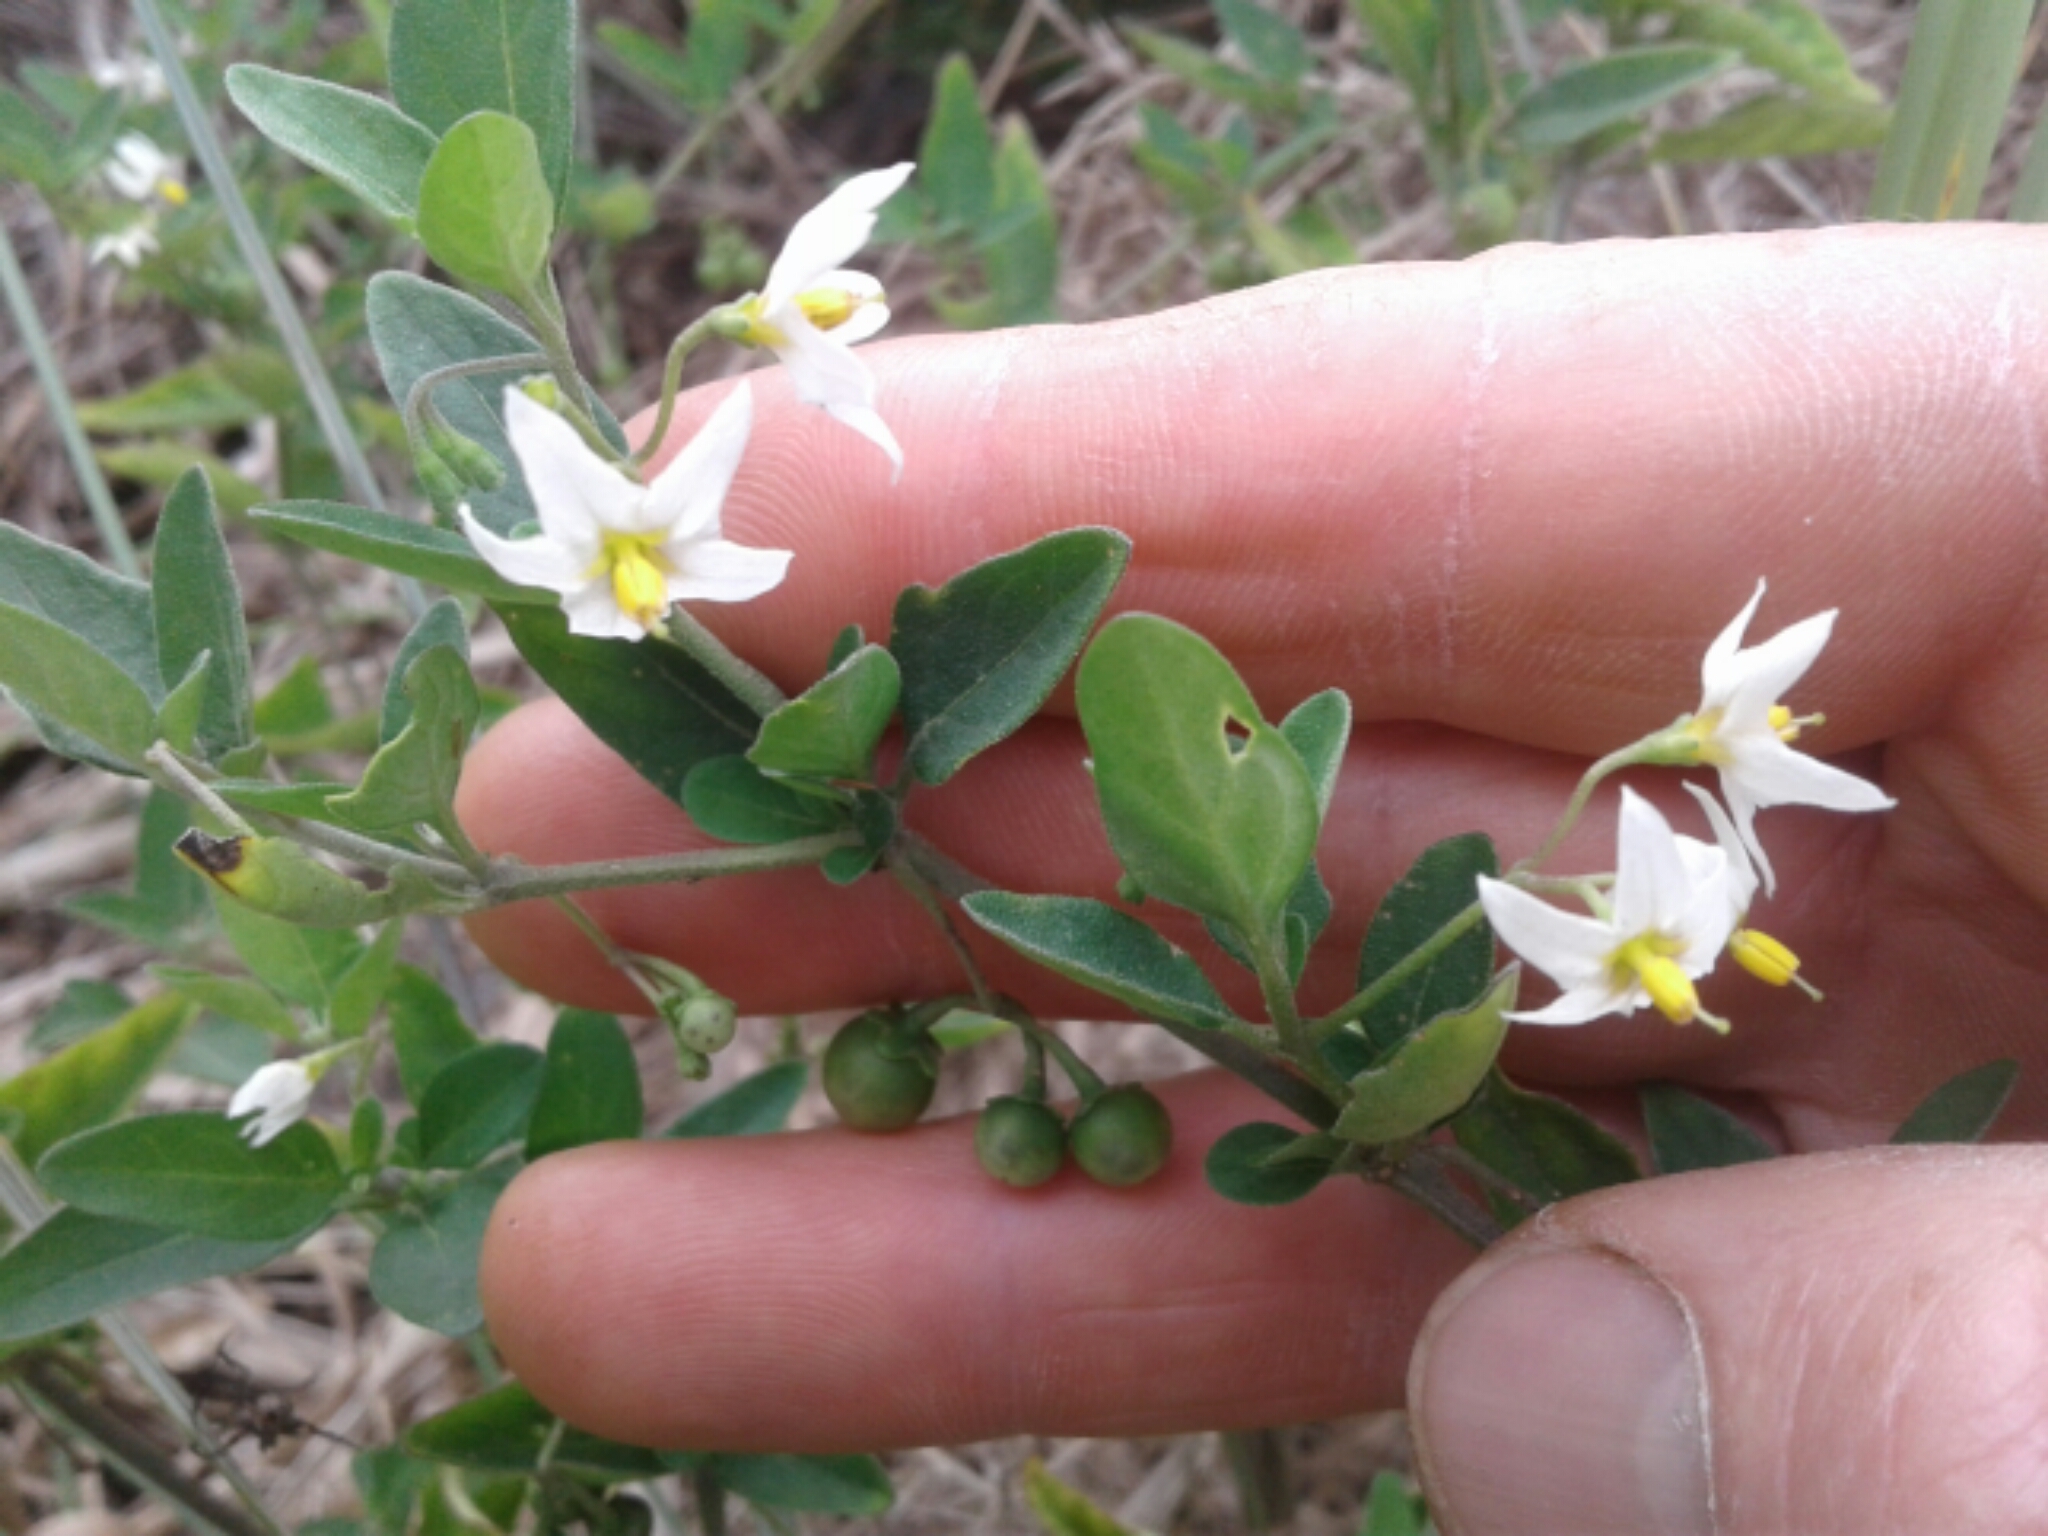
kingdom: Plantae
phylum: Tracheophyta
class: Magnoliopsida
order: Solanales
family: Solanaceae
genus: Solanum
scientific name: Solanum chenopodioides
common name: Tall nightshade
